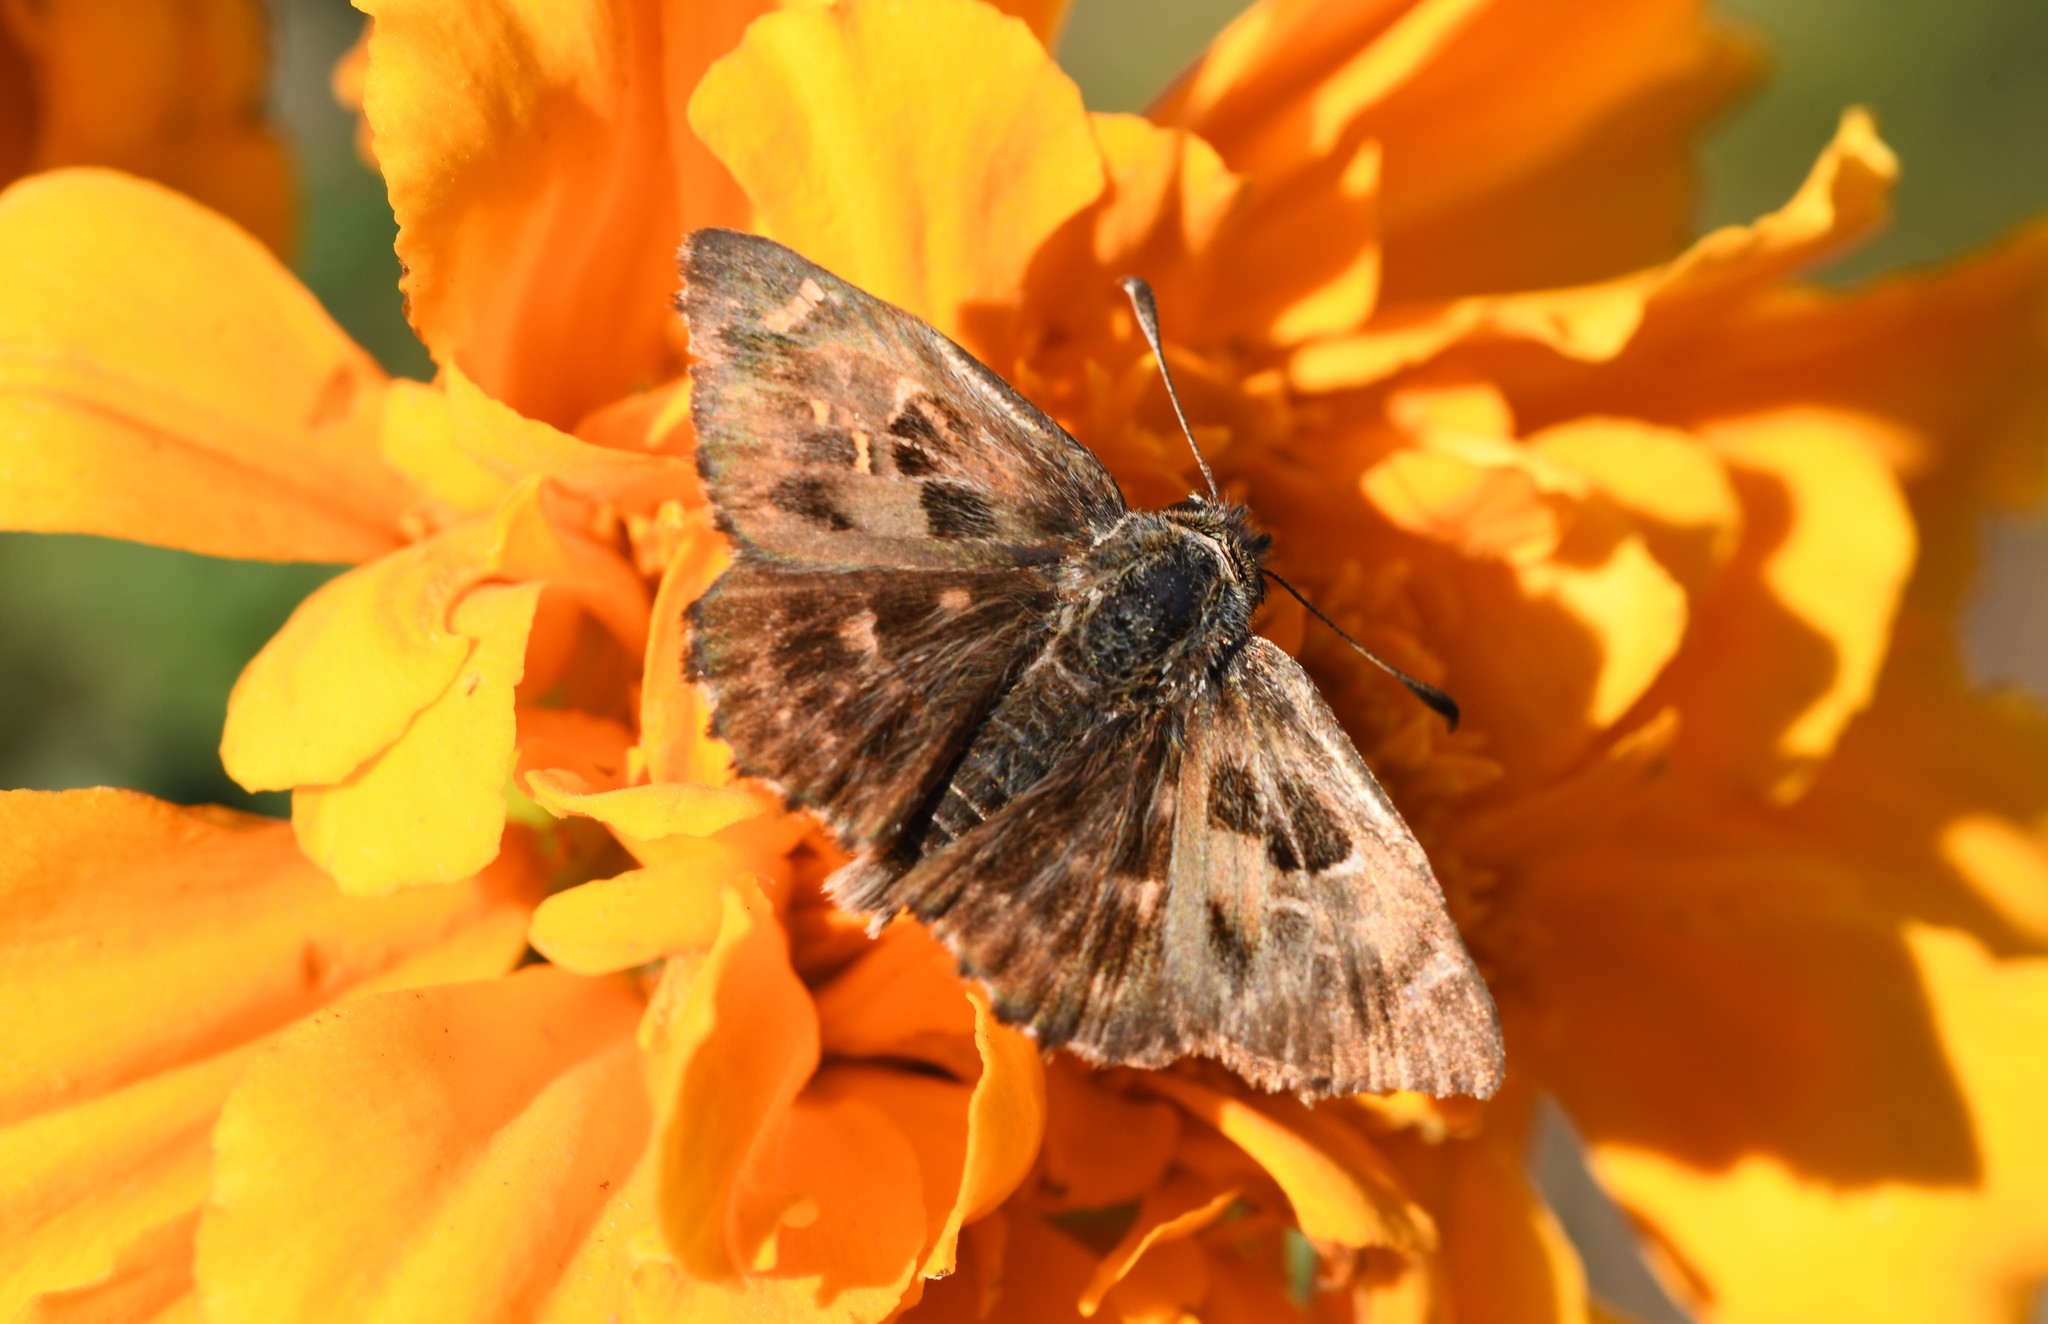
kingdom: Animalia
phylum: Arthropoda
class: Insecta
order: Lepidoptera
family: Hesperiidae
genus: Carcharodus
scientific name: Carcharodus alceae
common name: Mallow skipper
